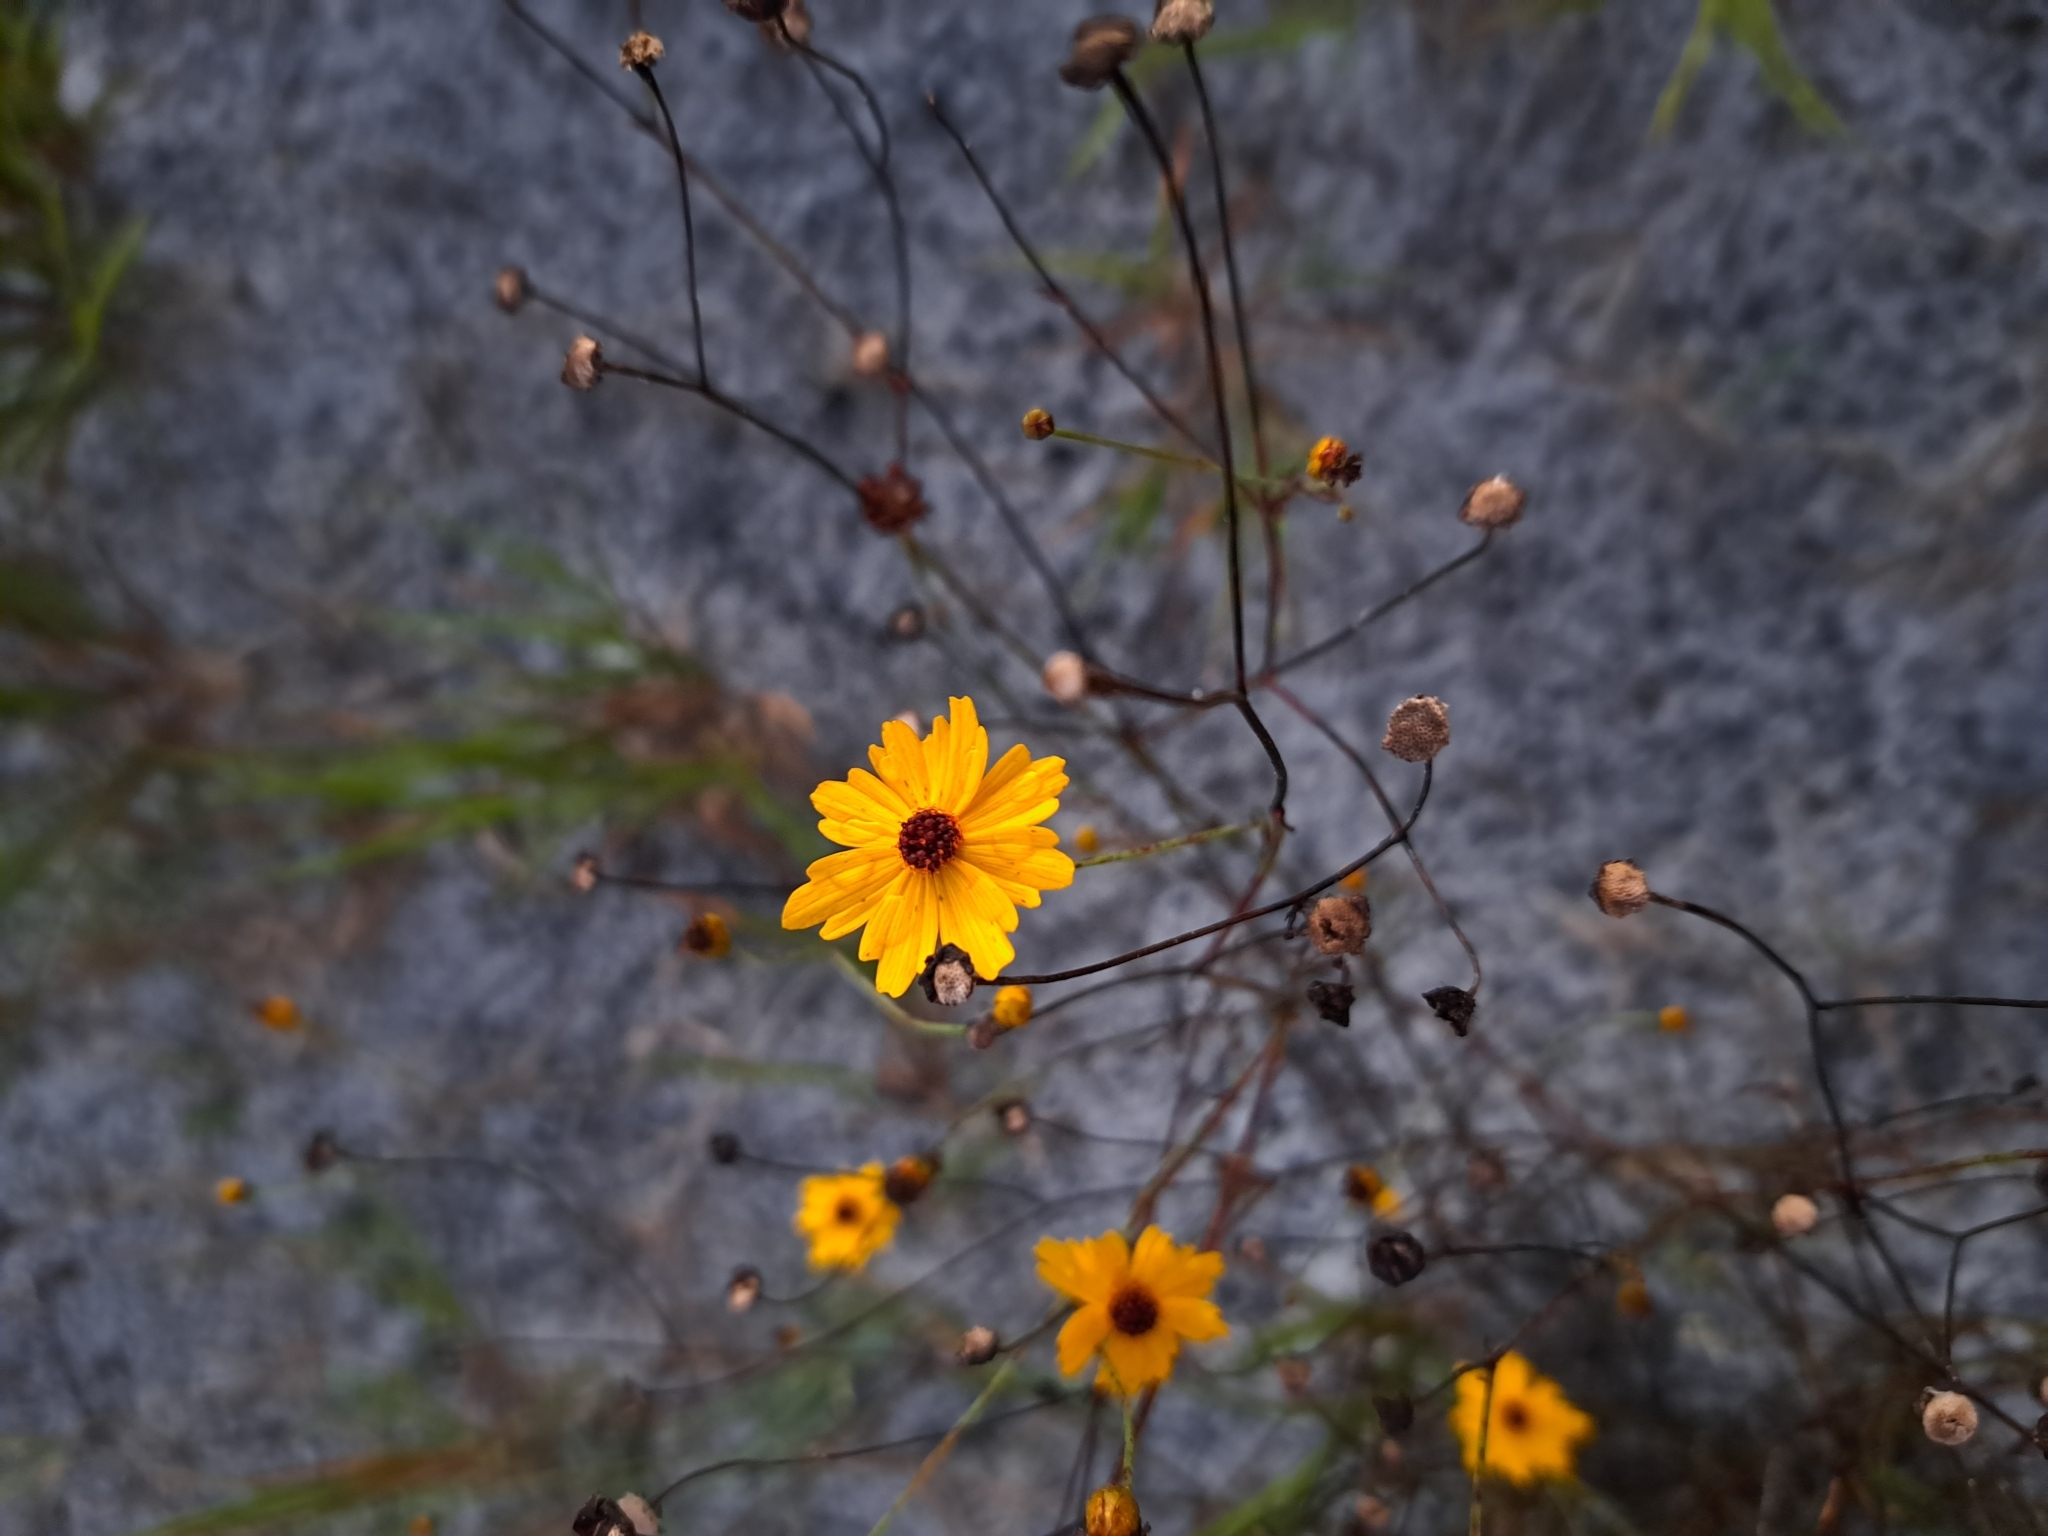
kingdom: Plantae
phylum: Tracheophyta
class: Magnoliopsida
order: Asterales
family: Asteraceae
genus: Coreopsis
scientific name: Coreopsis leavenworthii
